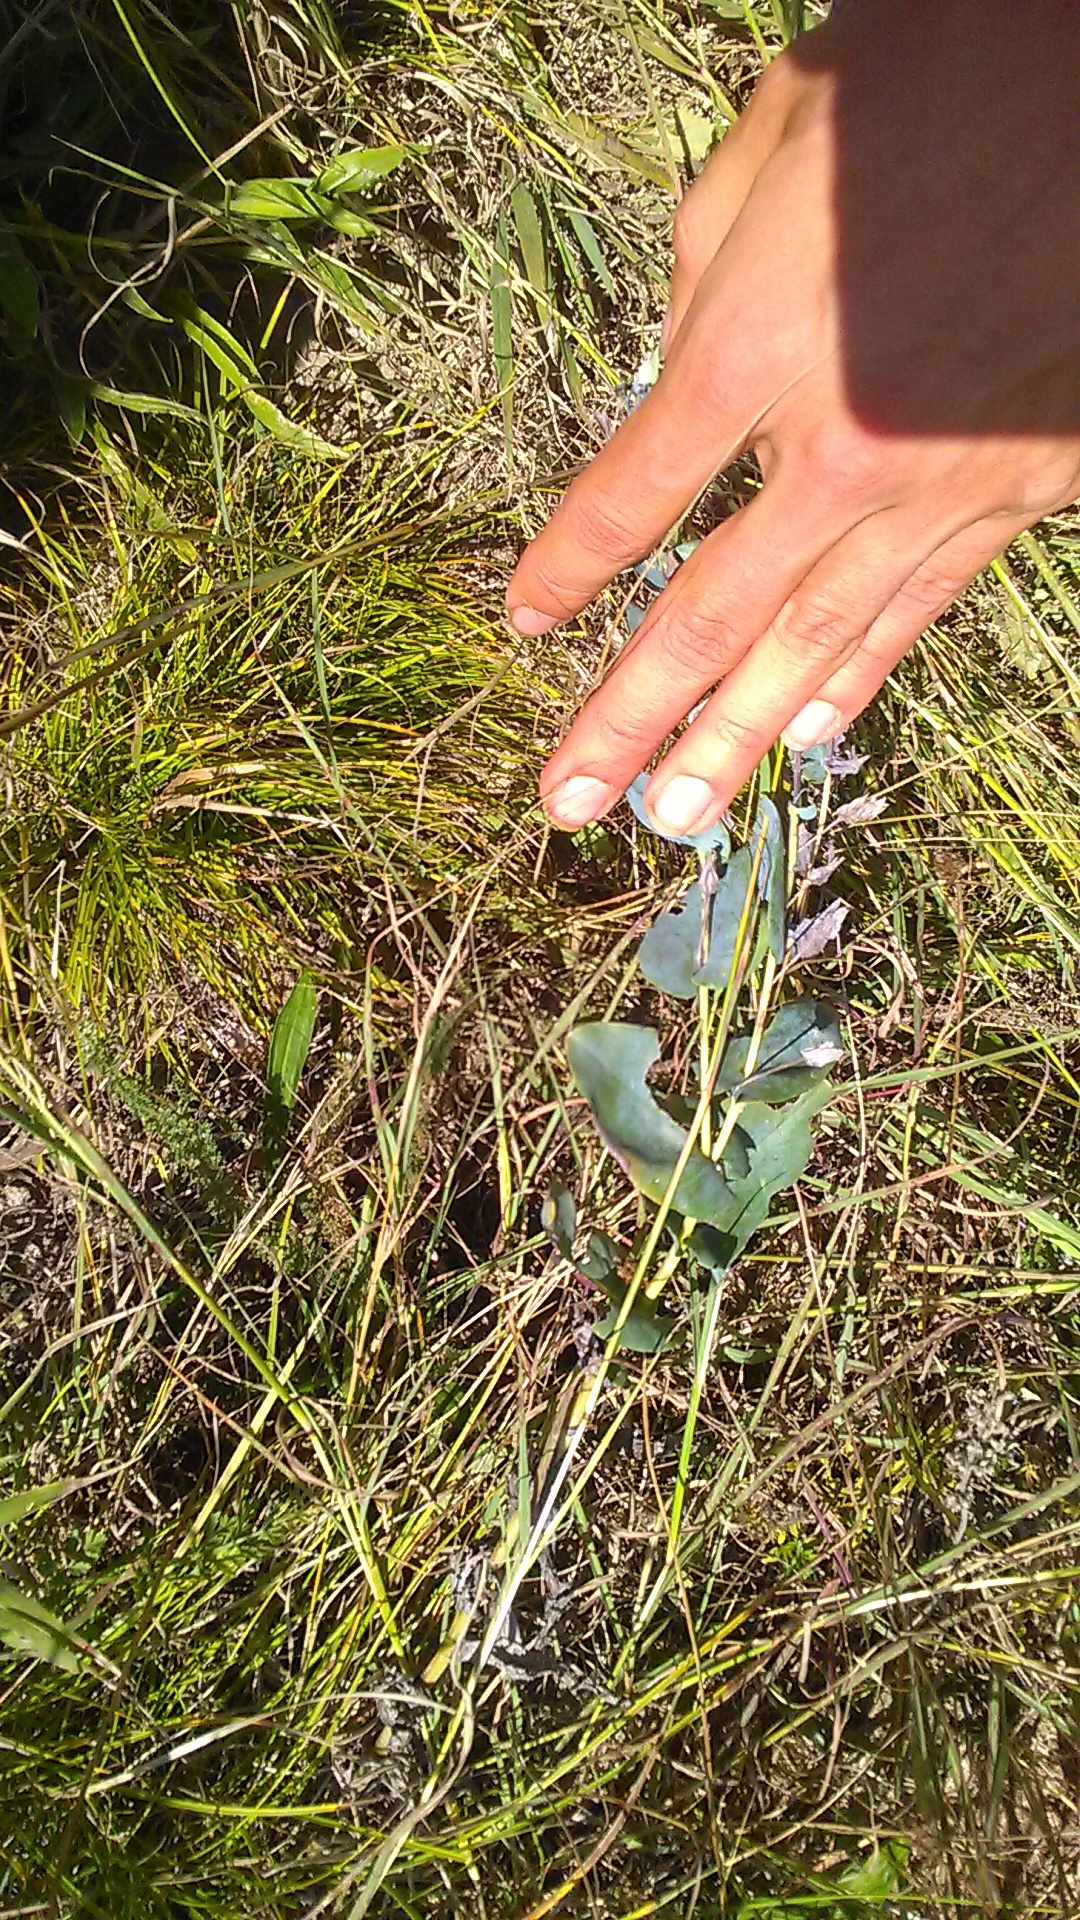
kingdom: Plantae
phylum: Tracheophyta
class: Magnoliopsida
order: Boraginales
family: Boraginaceae
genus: Cerinthe
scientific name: Cerinthe minor
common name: Lesser honeywort
